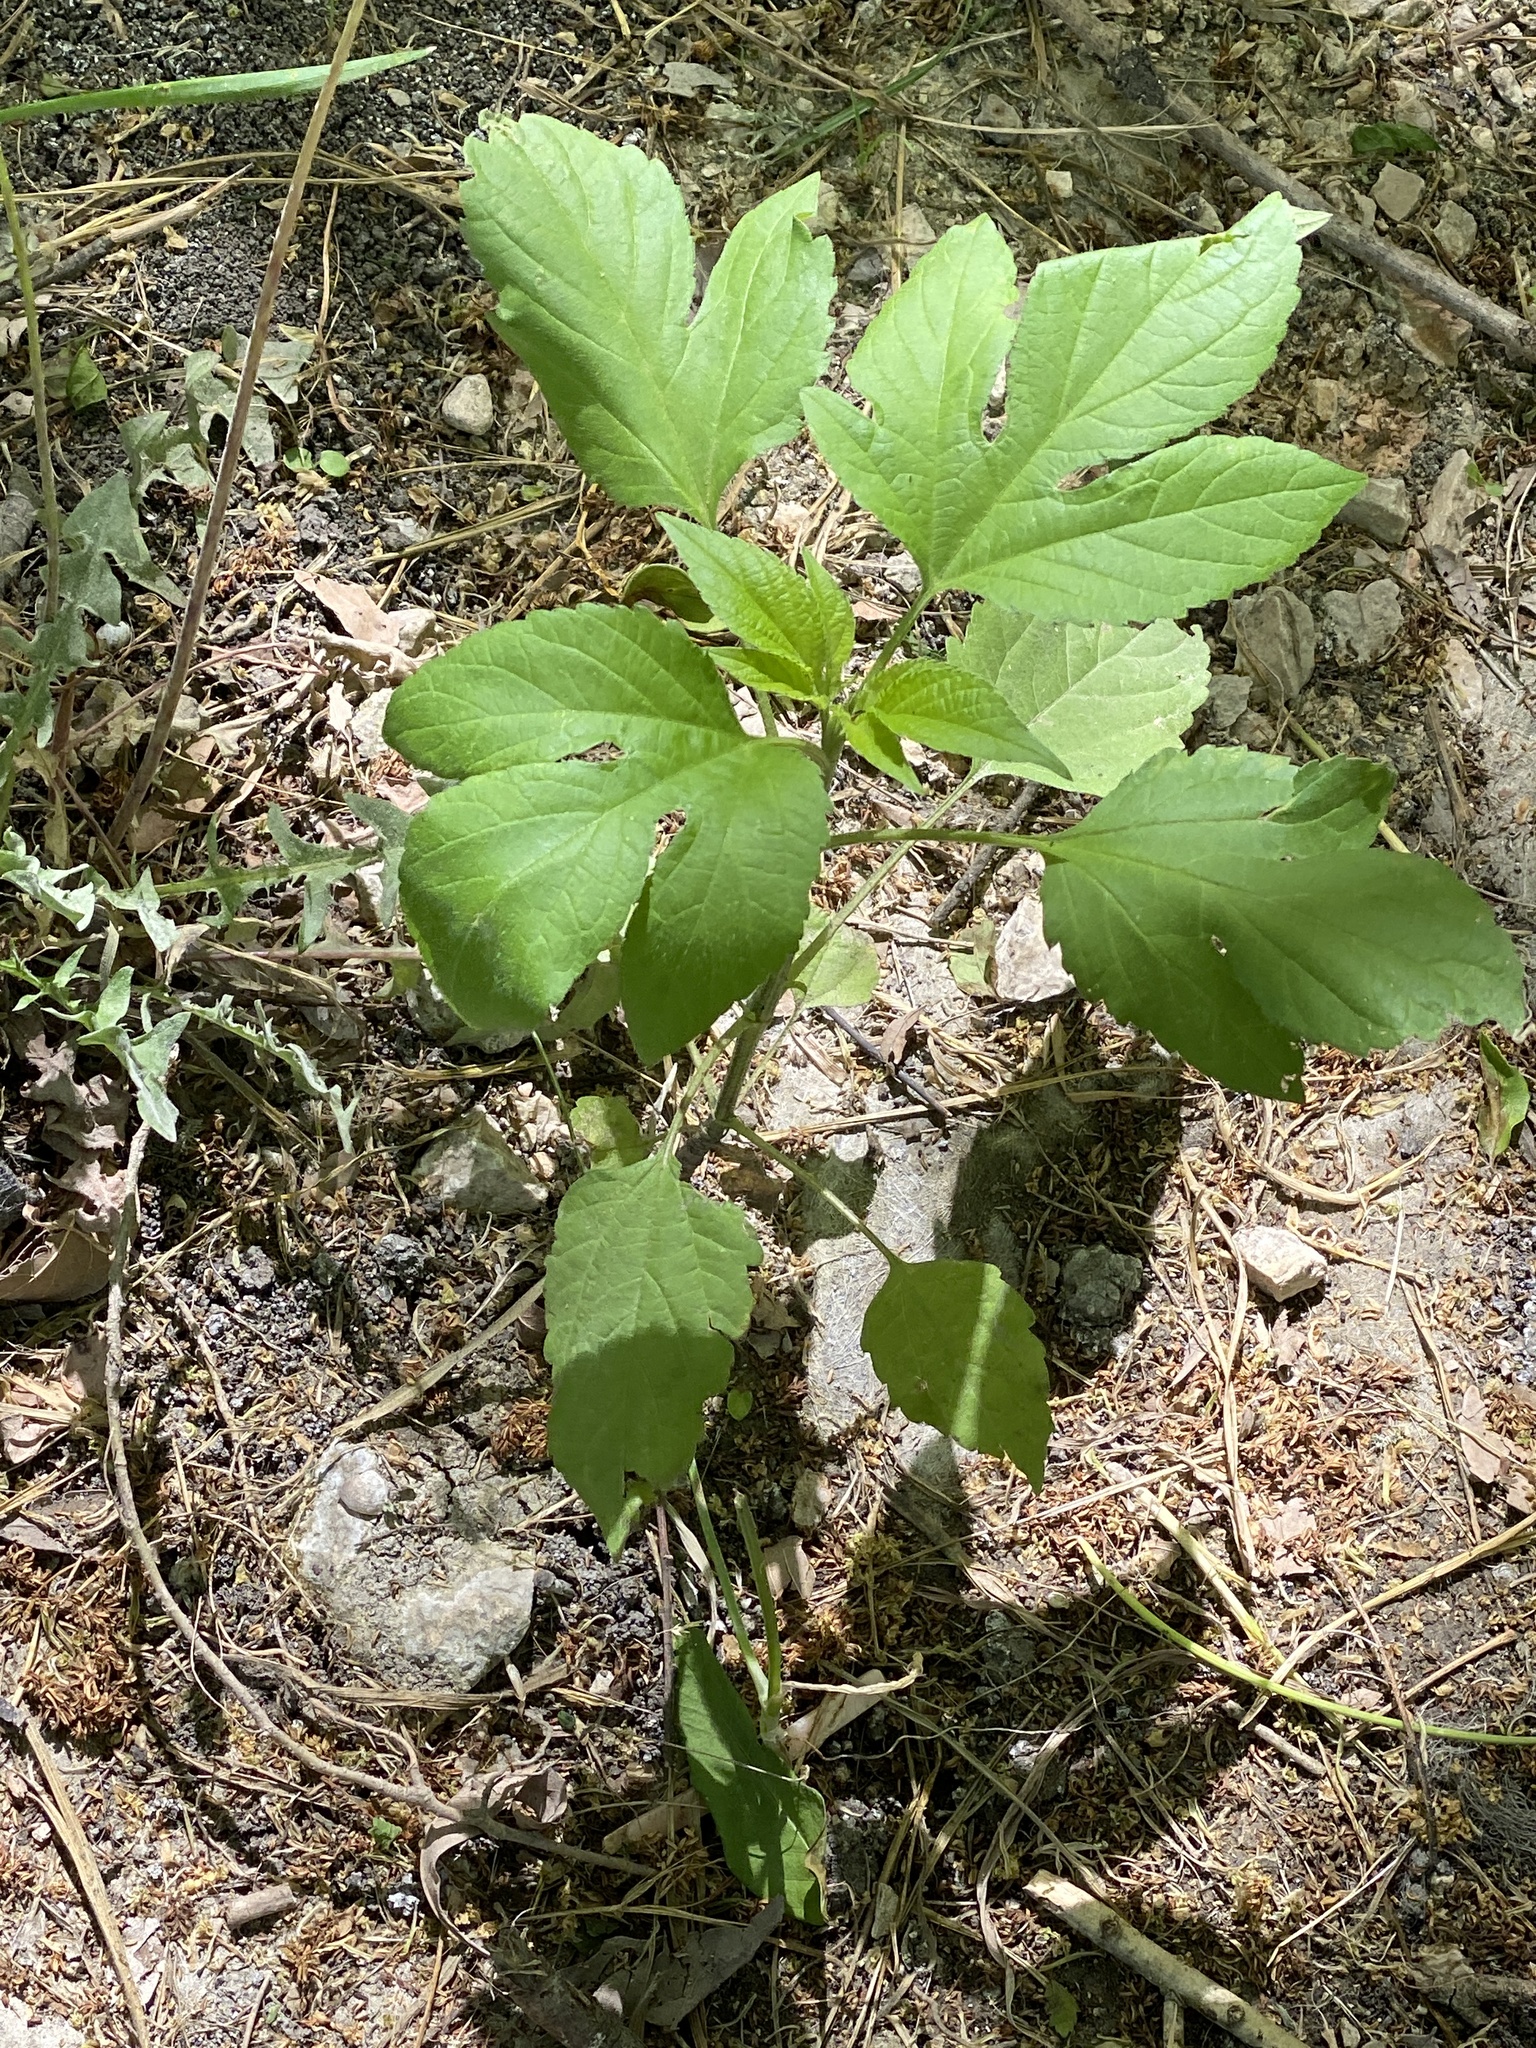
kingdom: Plantae
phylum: Tracheophyta
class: Magnoliopsida
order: Asterales
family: Asteraceae
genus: Ambrosia
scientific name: Ambrosia trifida
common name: Giant ragweed
